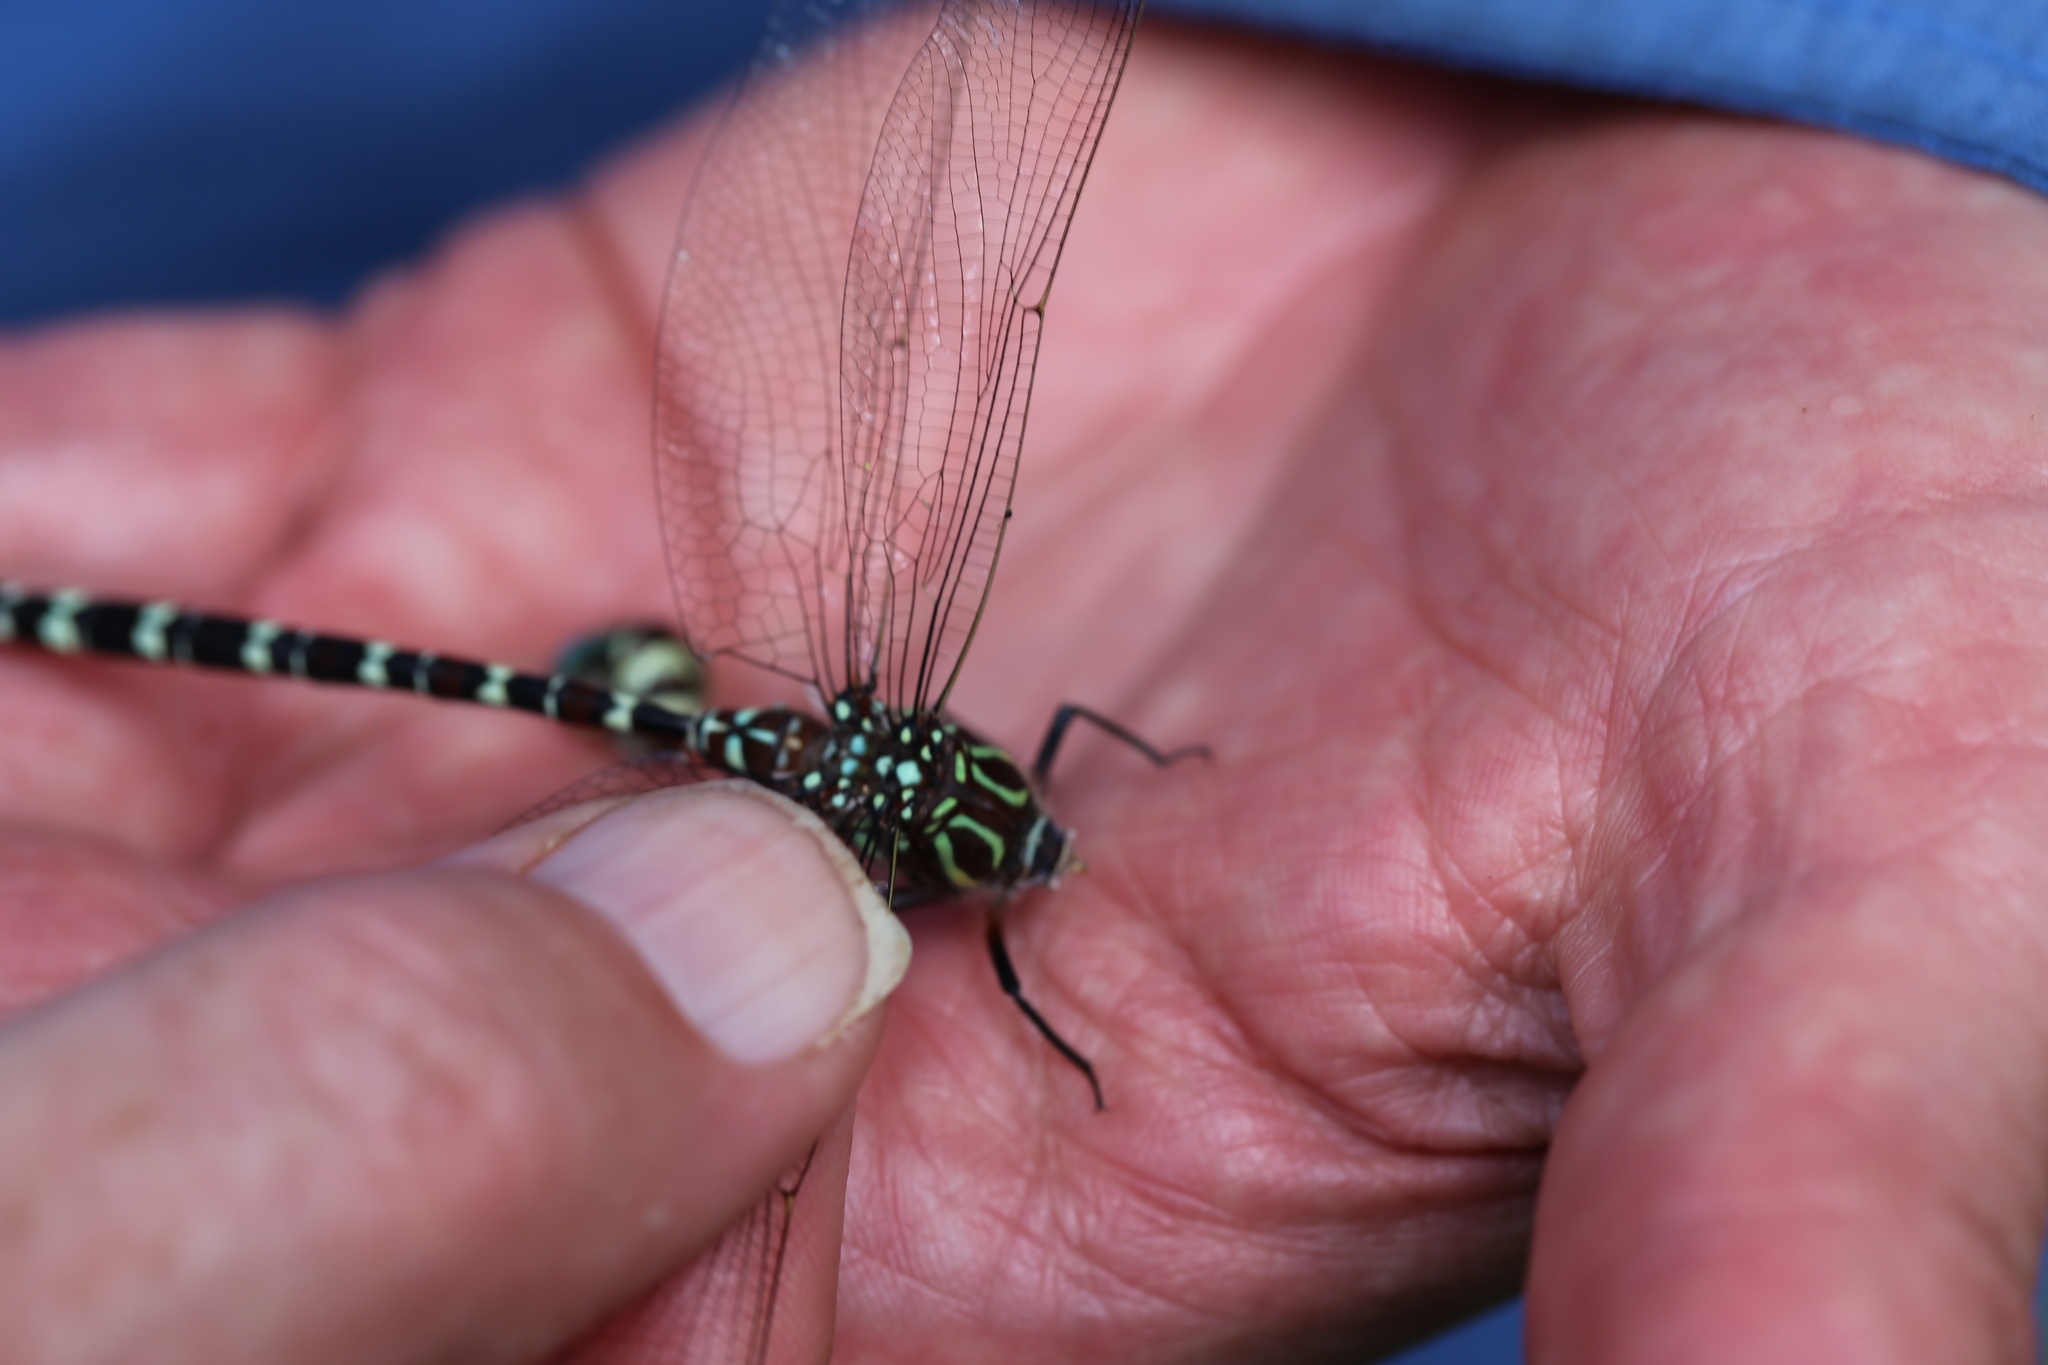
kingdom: Animalia
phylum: Arthropoda
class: Insecta
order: Odonata
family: Aeshnidae
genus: Austroaeschna
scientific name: Austroaeschna unicornis
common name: Unicorn darner
